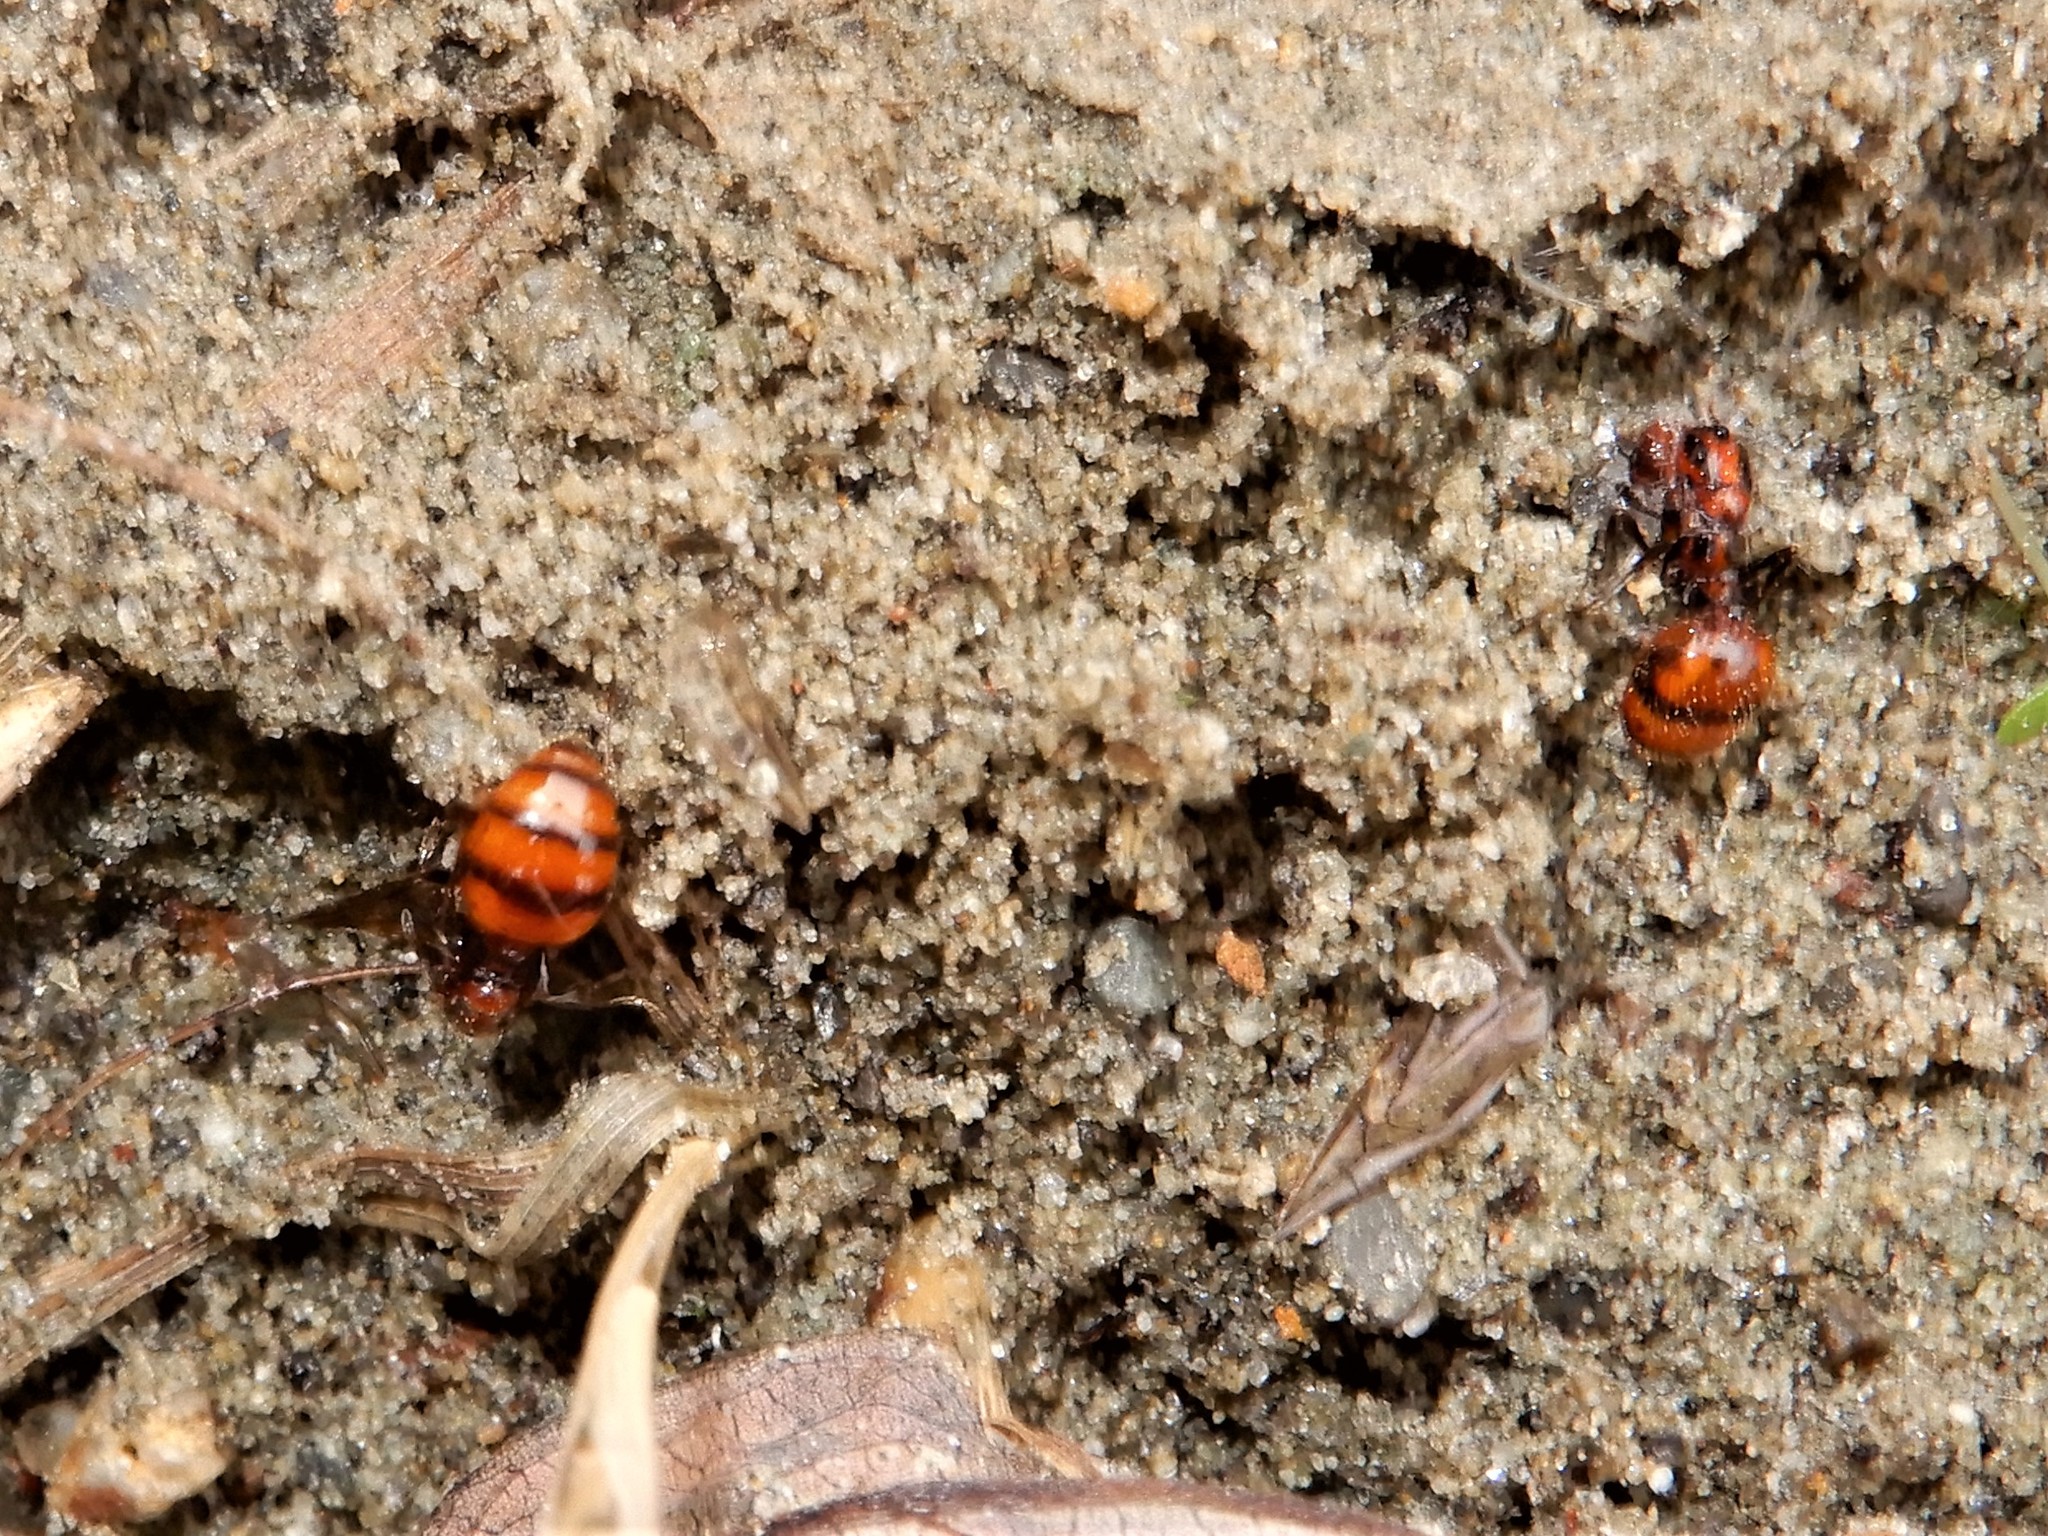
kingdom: Animalia
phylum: Arthropoda
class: Insecta
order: Hymenoptera
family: Formicidae
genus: Monomorium
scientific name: Monomorium antarcticum
